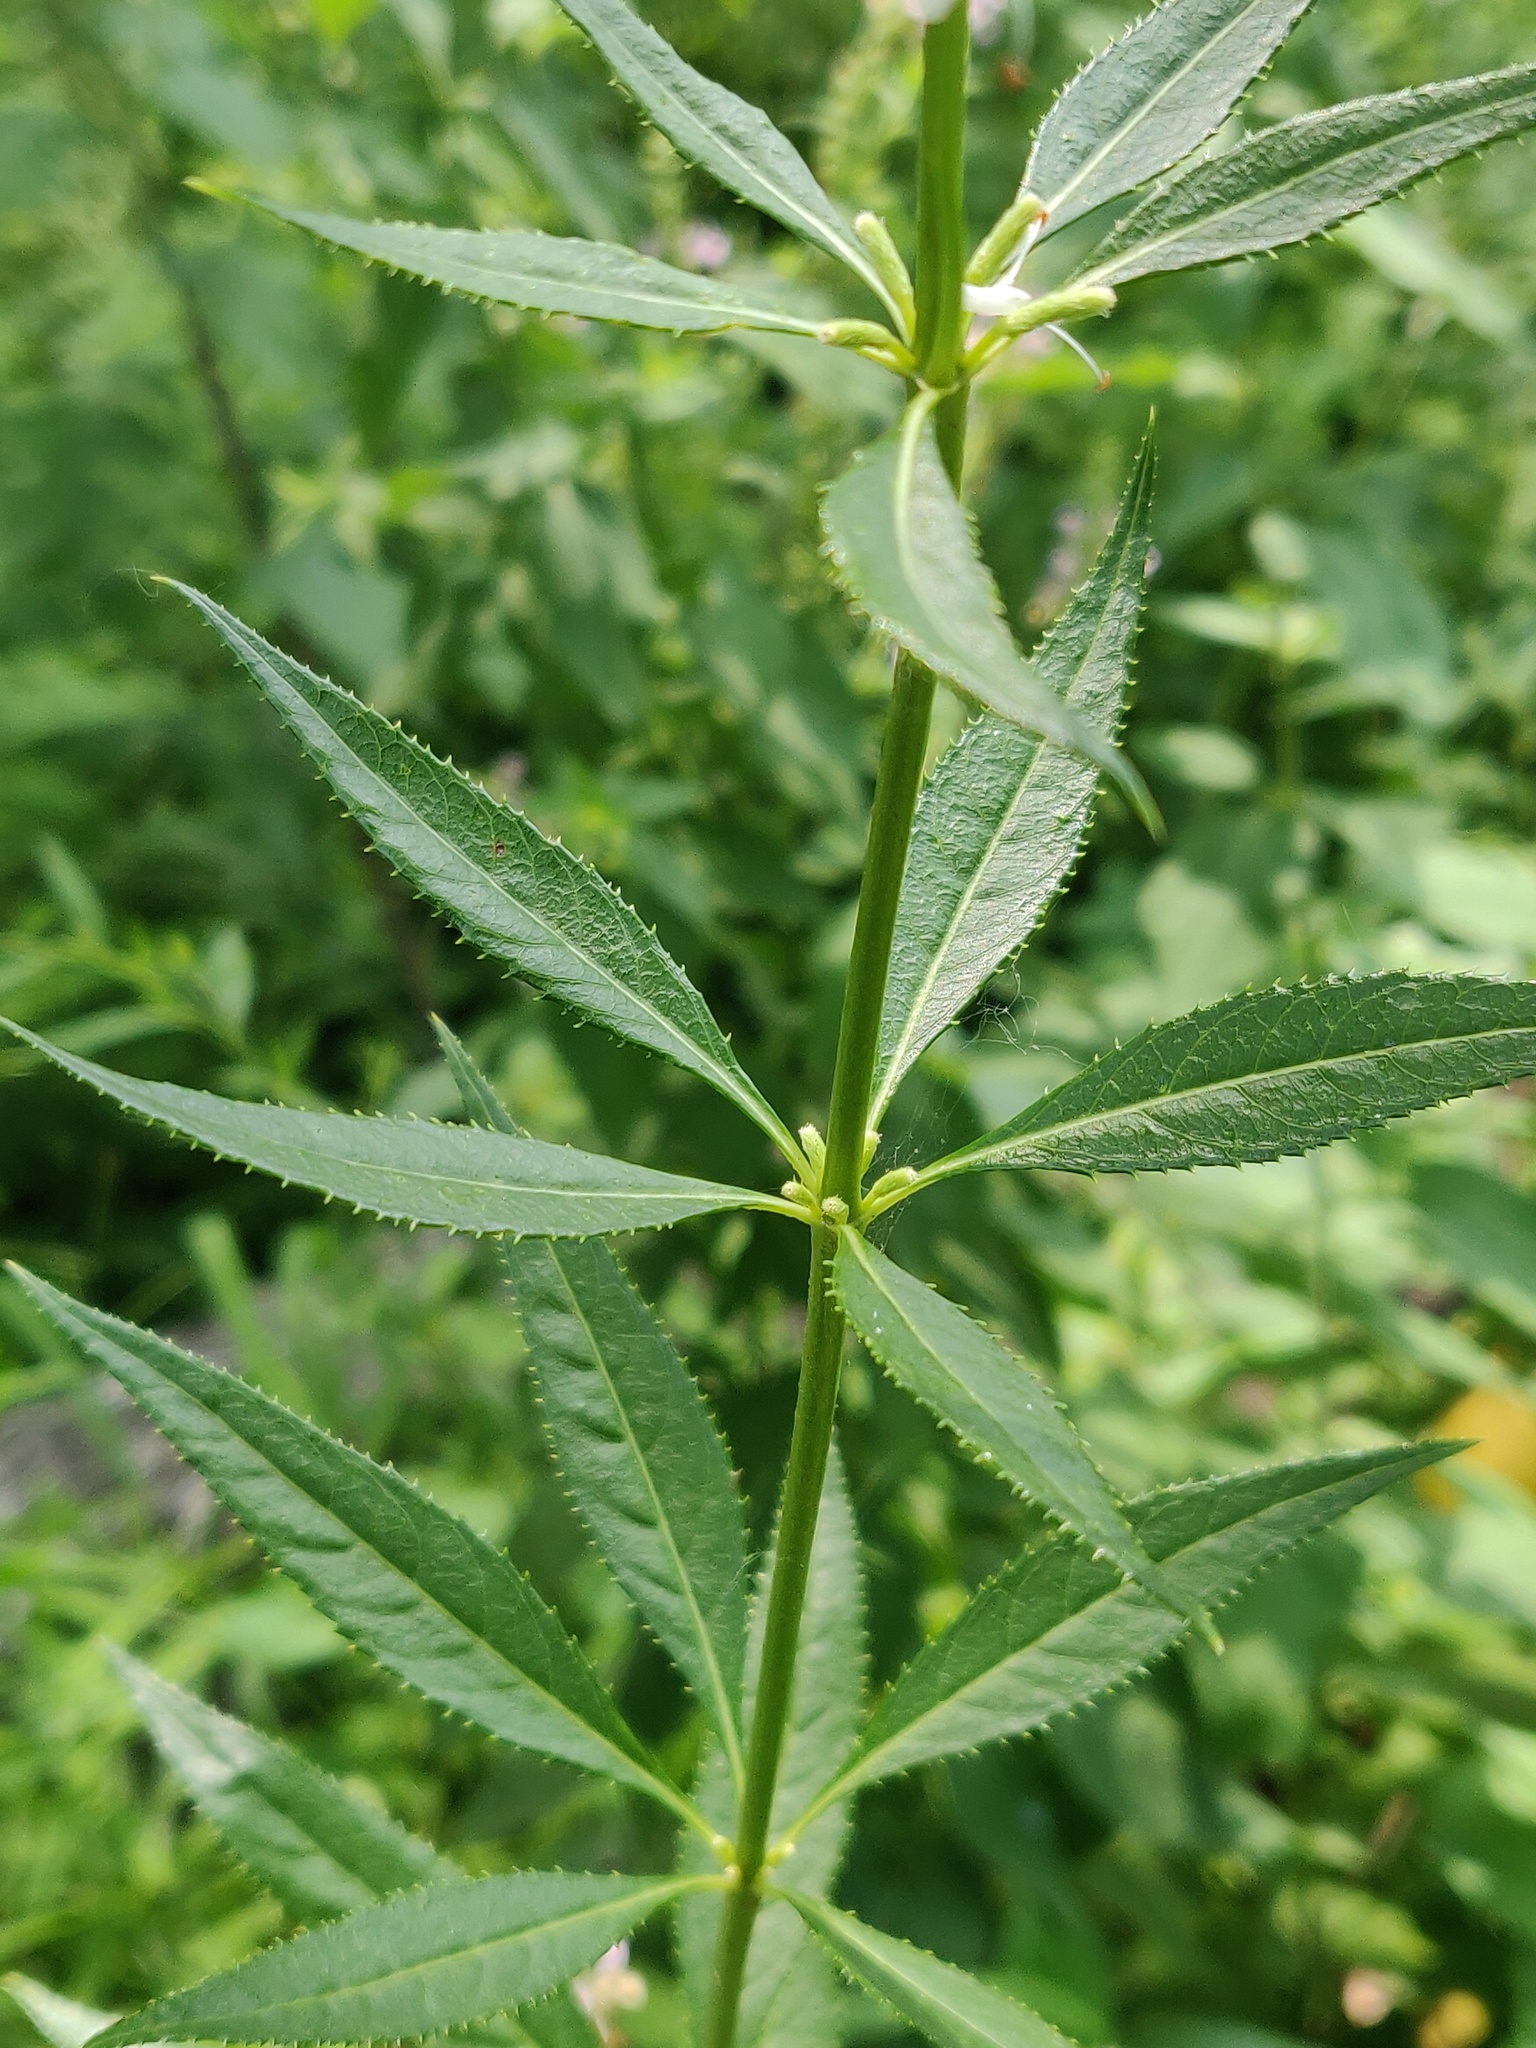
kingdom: Plantae
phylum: Tracheophyta
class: Magnoliopsida
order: Lamiales
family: Plantaginaceae
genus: Veronicastrum
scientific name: Veronicastrum virginicum
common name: Blackroot
